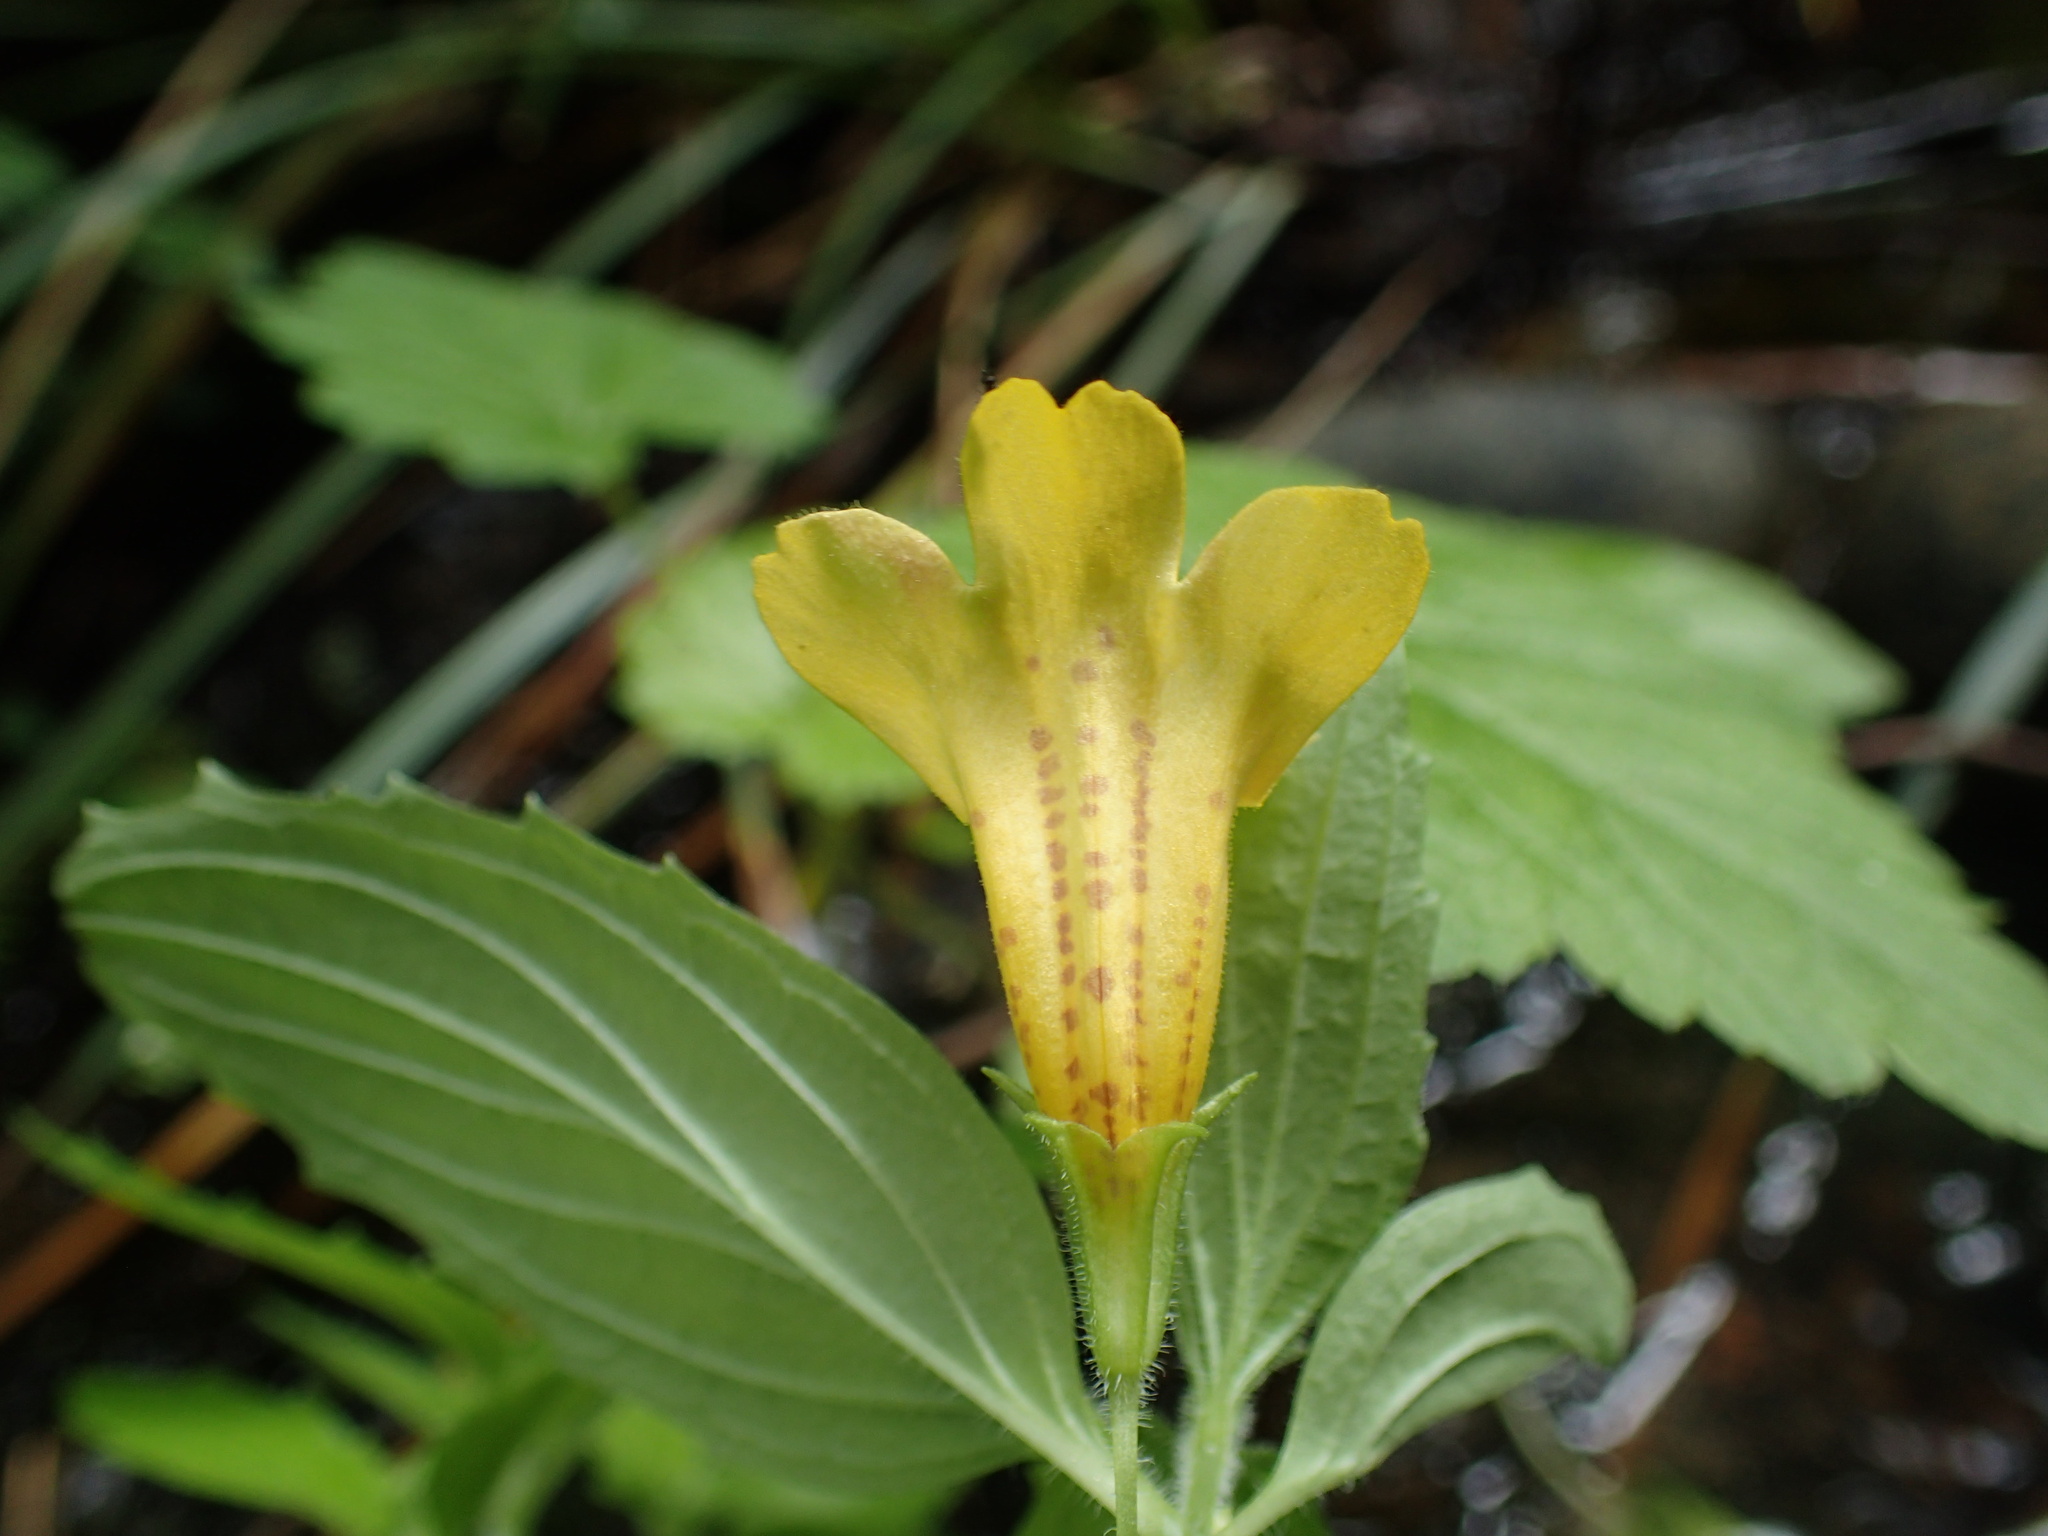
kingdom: Plantae
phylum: Tracheophyta
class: Magnoliopsida
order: Lamiales
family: Phrymaceae
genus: Erythranthe
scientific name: Erythranthe dentata
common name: Coastal monkeyflower
